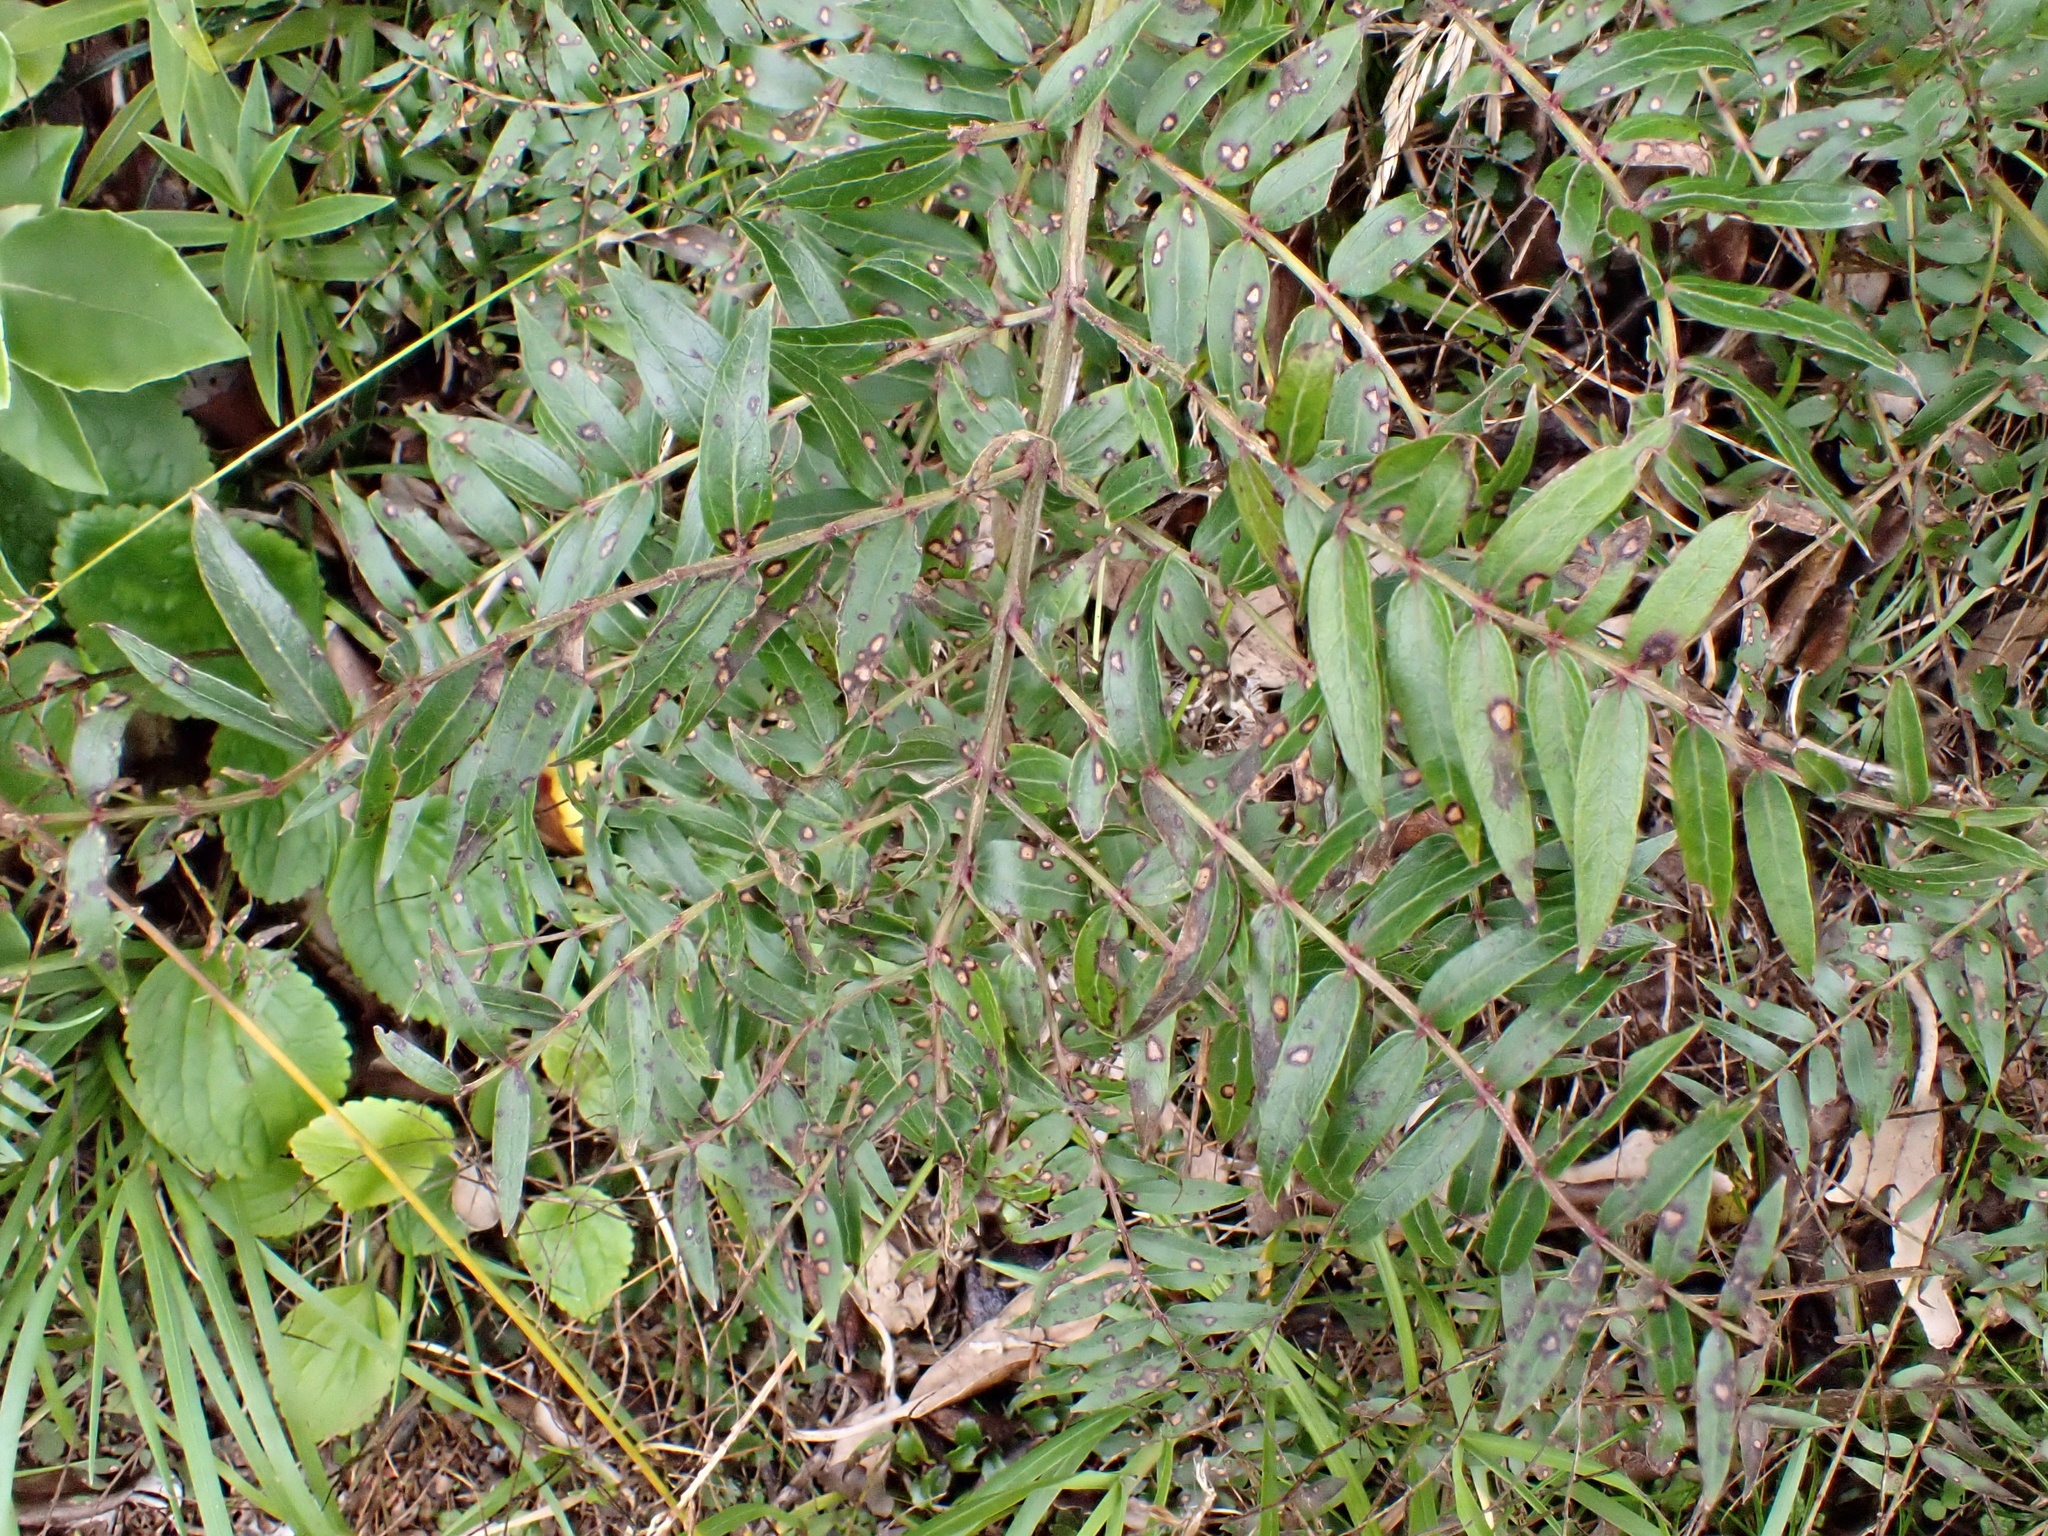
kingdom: Plantae
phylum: Tracheophyta
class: Magnoliopsida
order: Cucurbitales
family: Coriariaceae
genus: Coriaria
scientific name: Coriaria pteridoides
